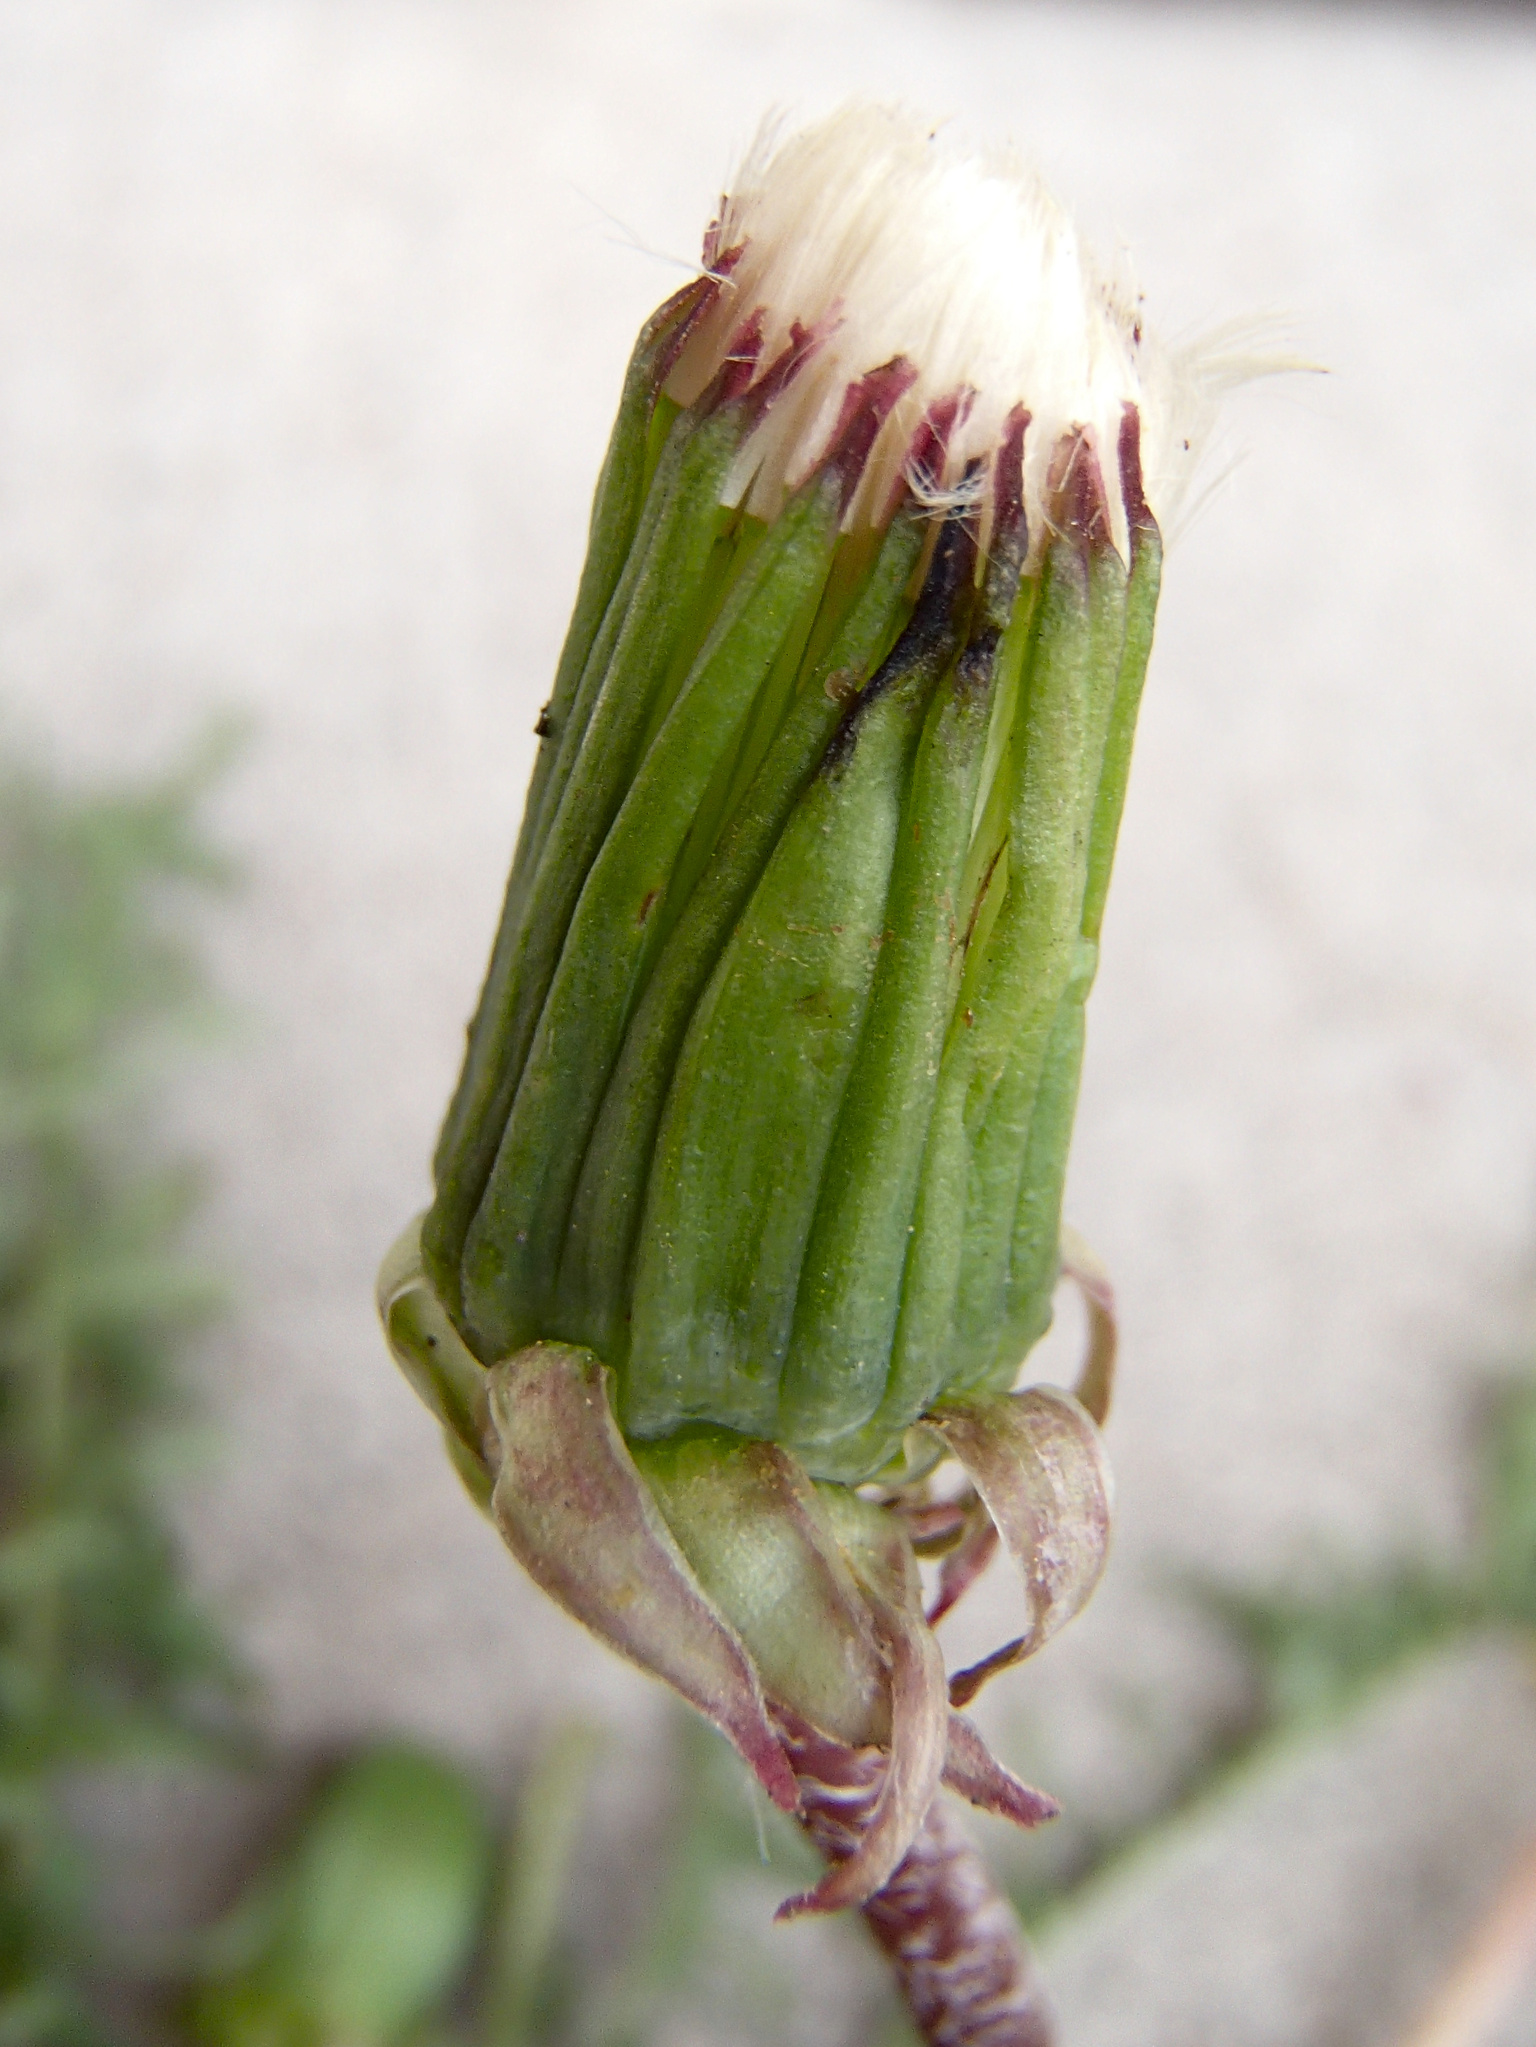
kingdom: Plantae
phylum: Tracheophyta
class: Magnoliopsida
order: Asterales
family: Asteraceae
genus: Taraxacum
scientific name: Taraxacum erythrospermum
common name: Rock dandelion
